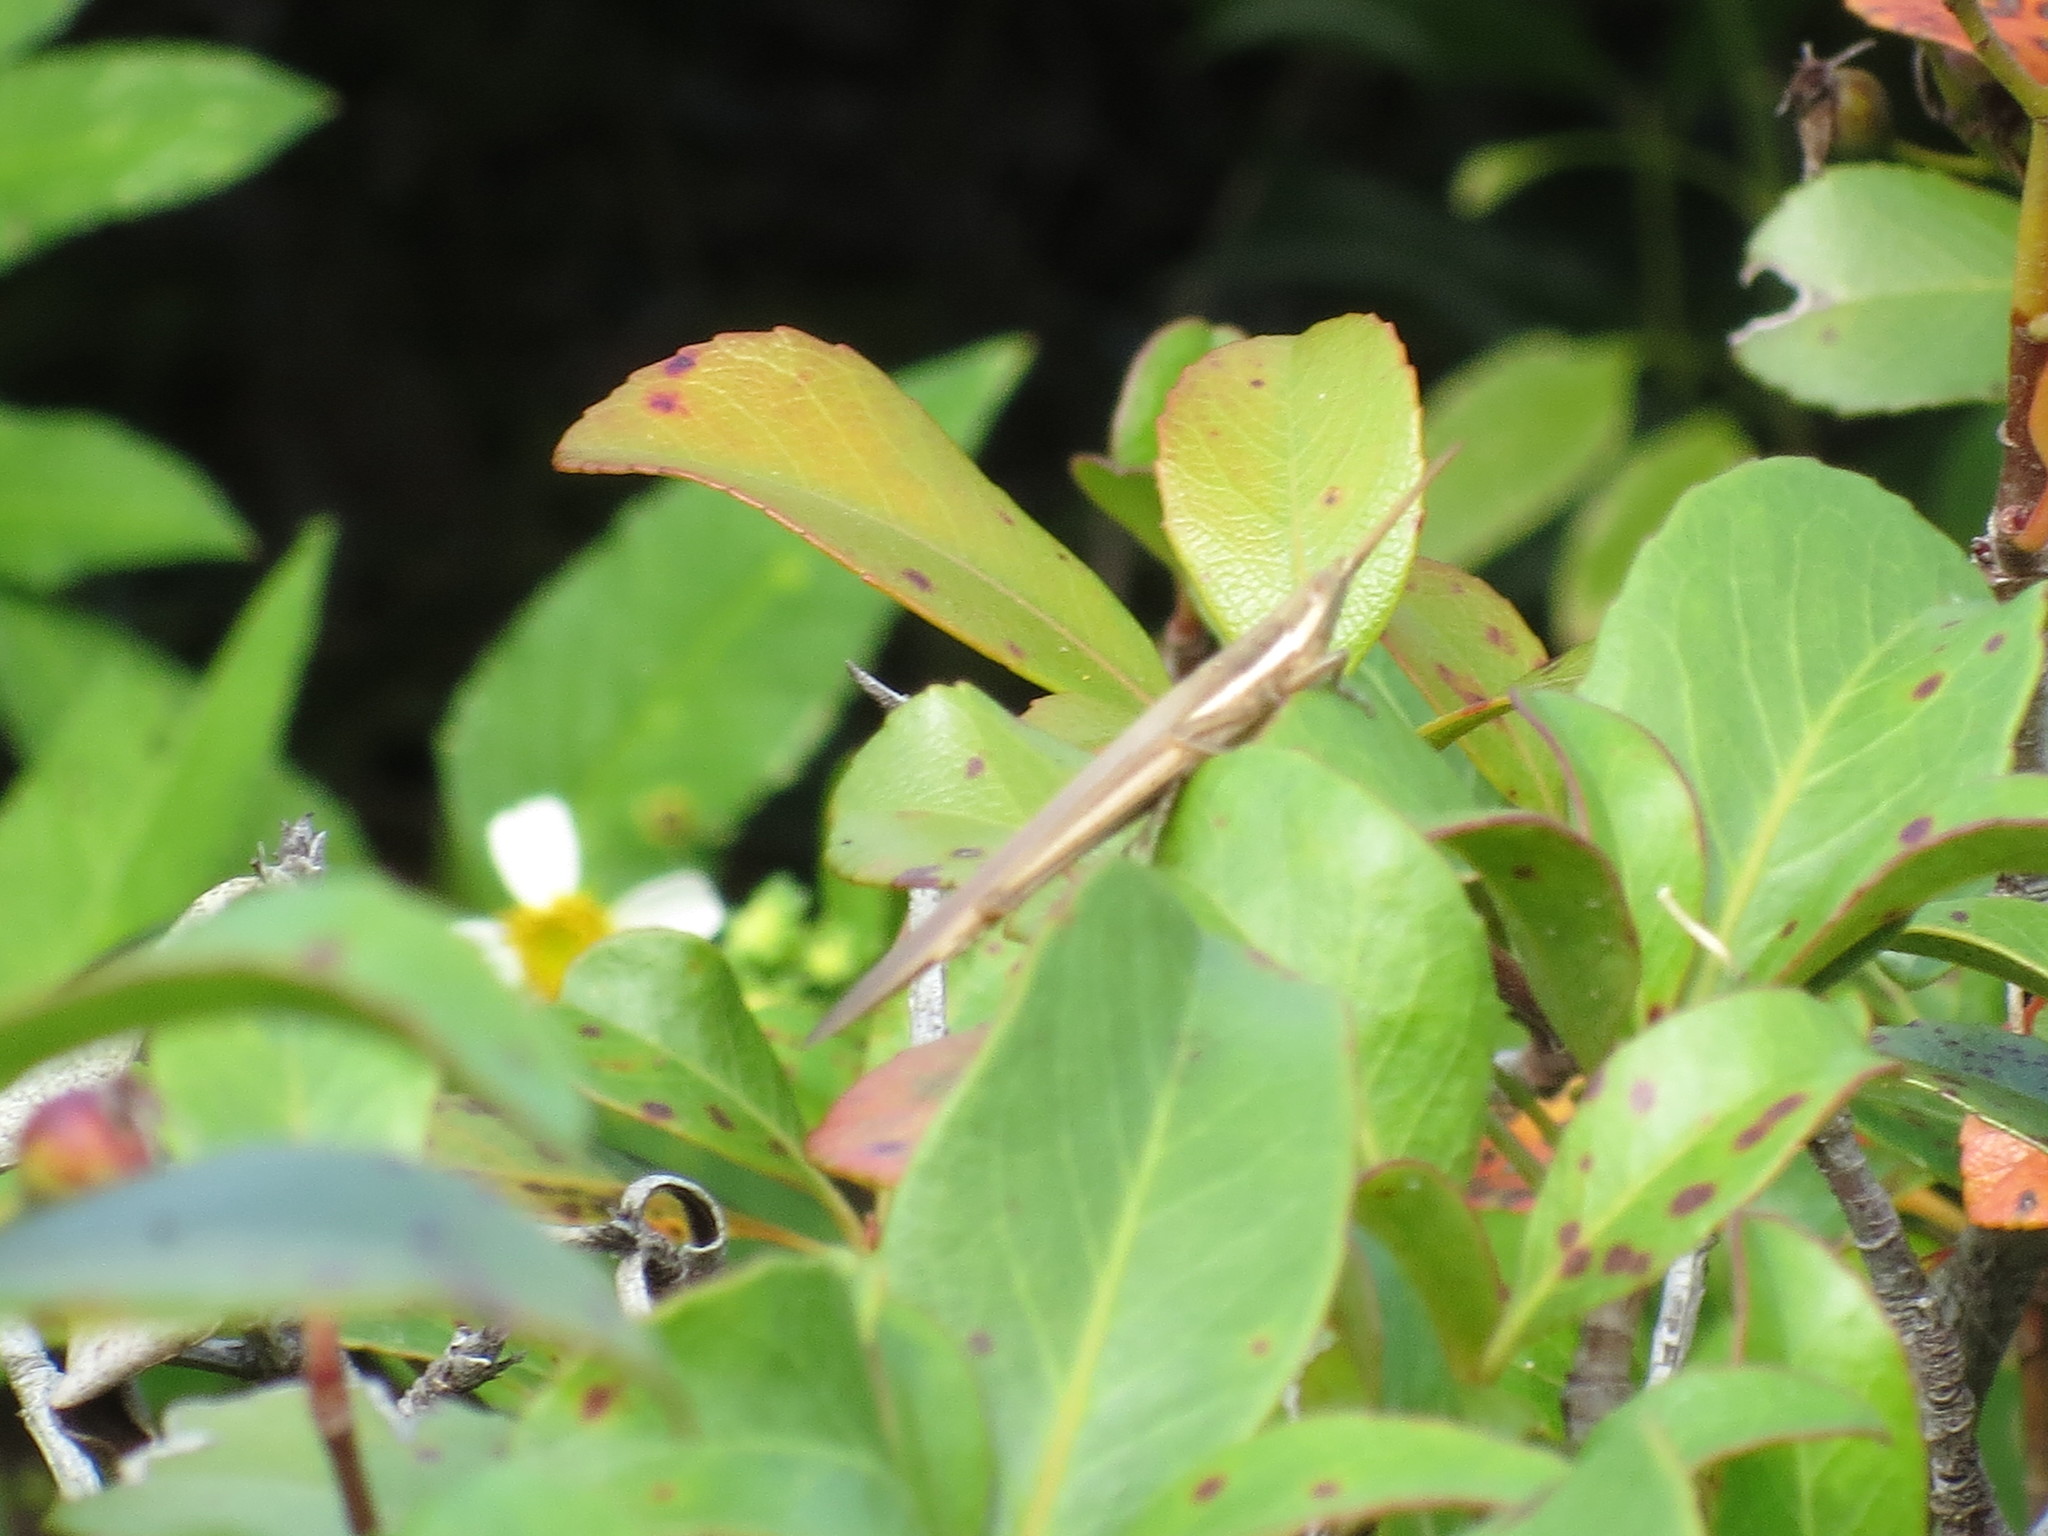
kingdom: Animalia
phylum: Arthropoda
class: Insecta
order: Orthoptera
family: Acrididae
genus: Leptysma
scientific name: Leptysma marginicollis
